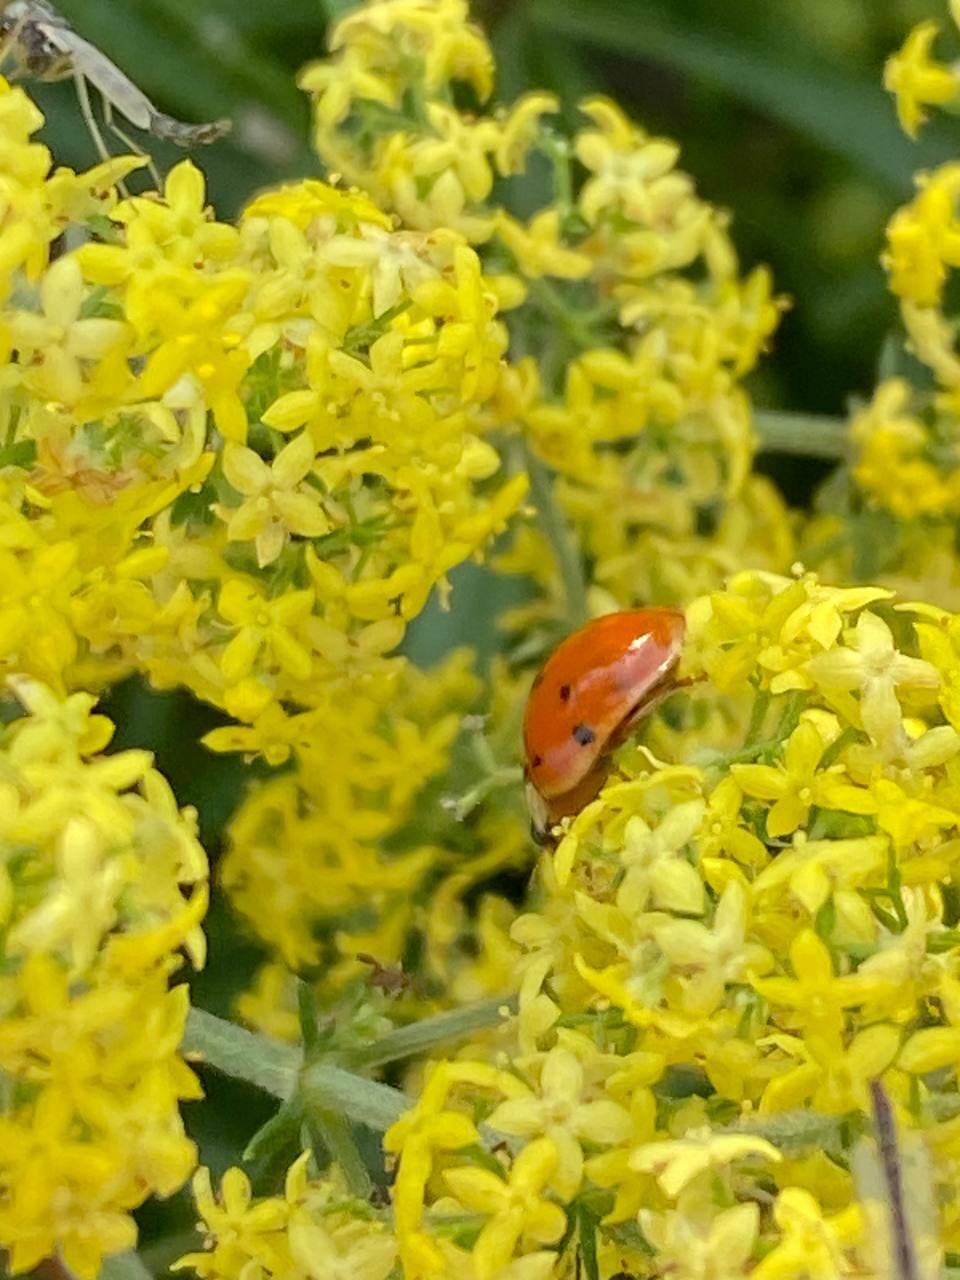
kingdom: Animalia
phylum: Arthropoda
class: Insecta
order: Coleoptera
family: Coccinellidae
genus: Harmonia
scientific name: Harmonia axyridis
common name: Harlequin ladybird
